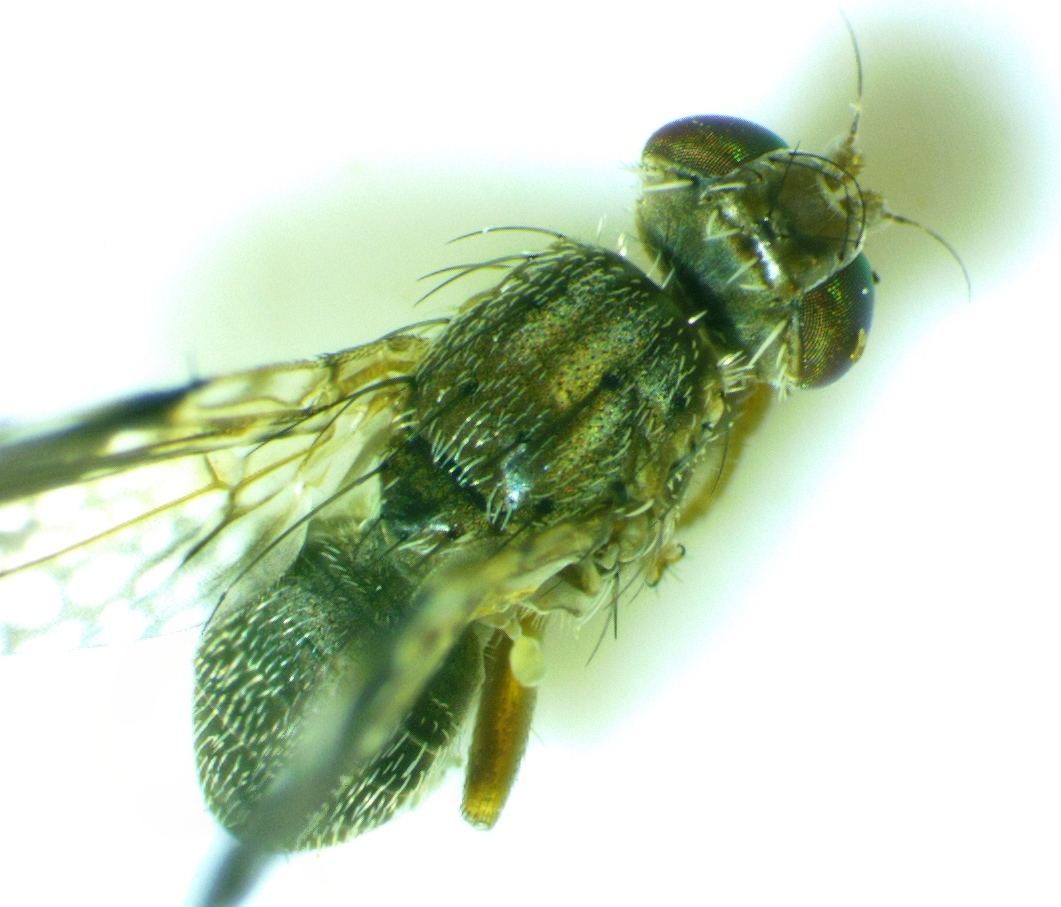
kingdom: Animalia
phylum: Arthropoda
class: Insecta
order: Diptera
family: Tephritidae
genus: Tephritis
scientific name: Tephritis subpura
